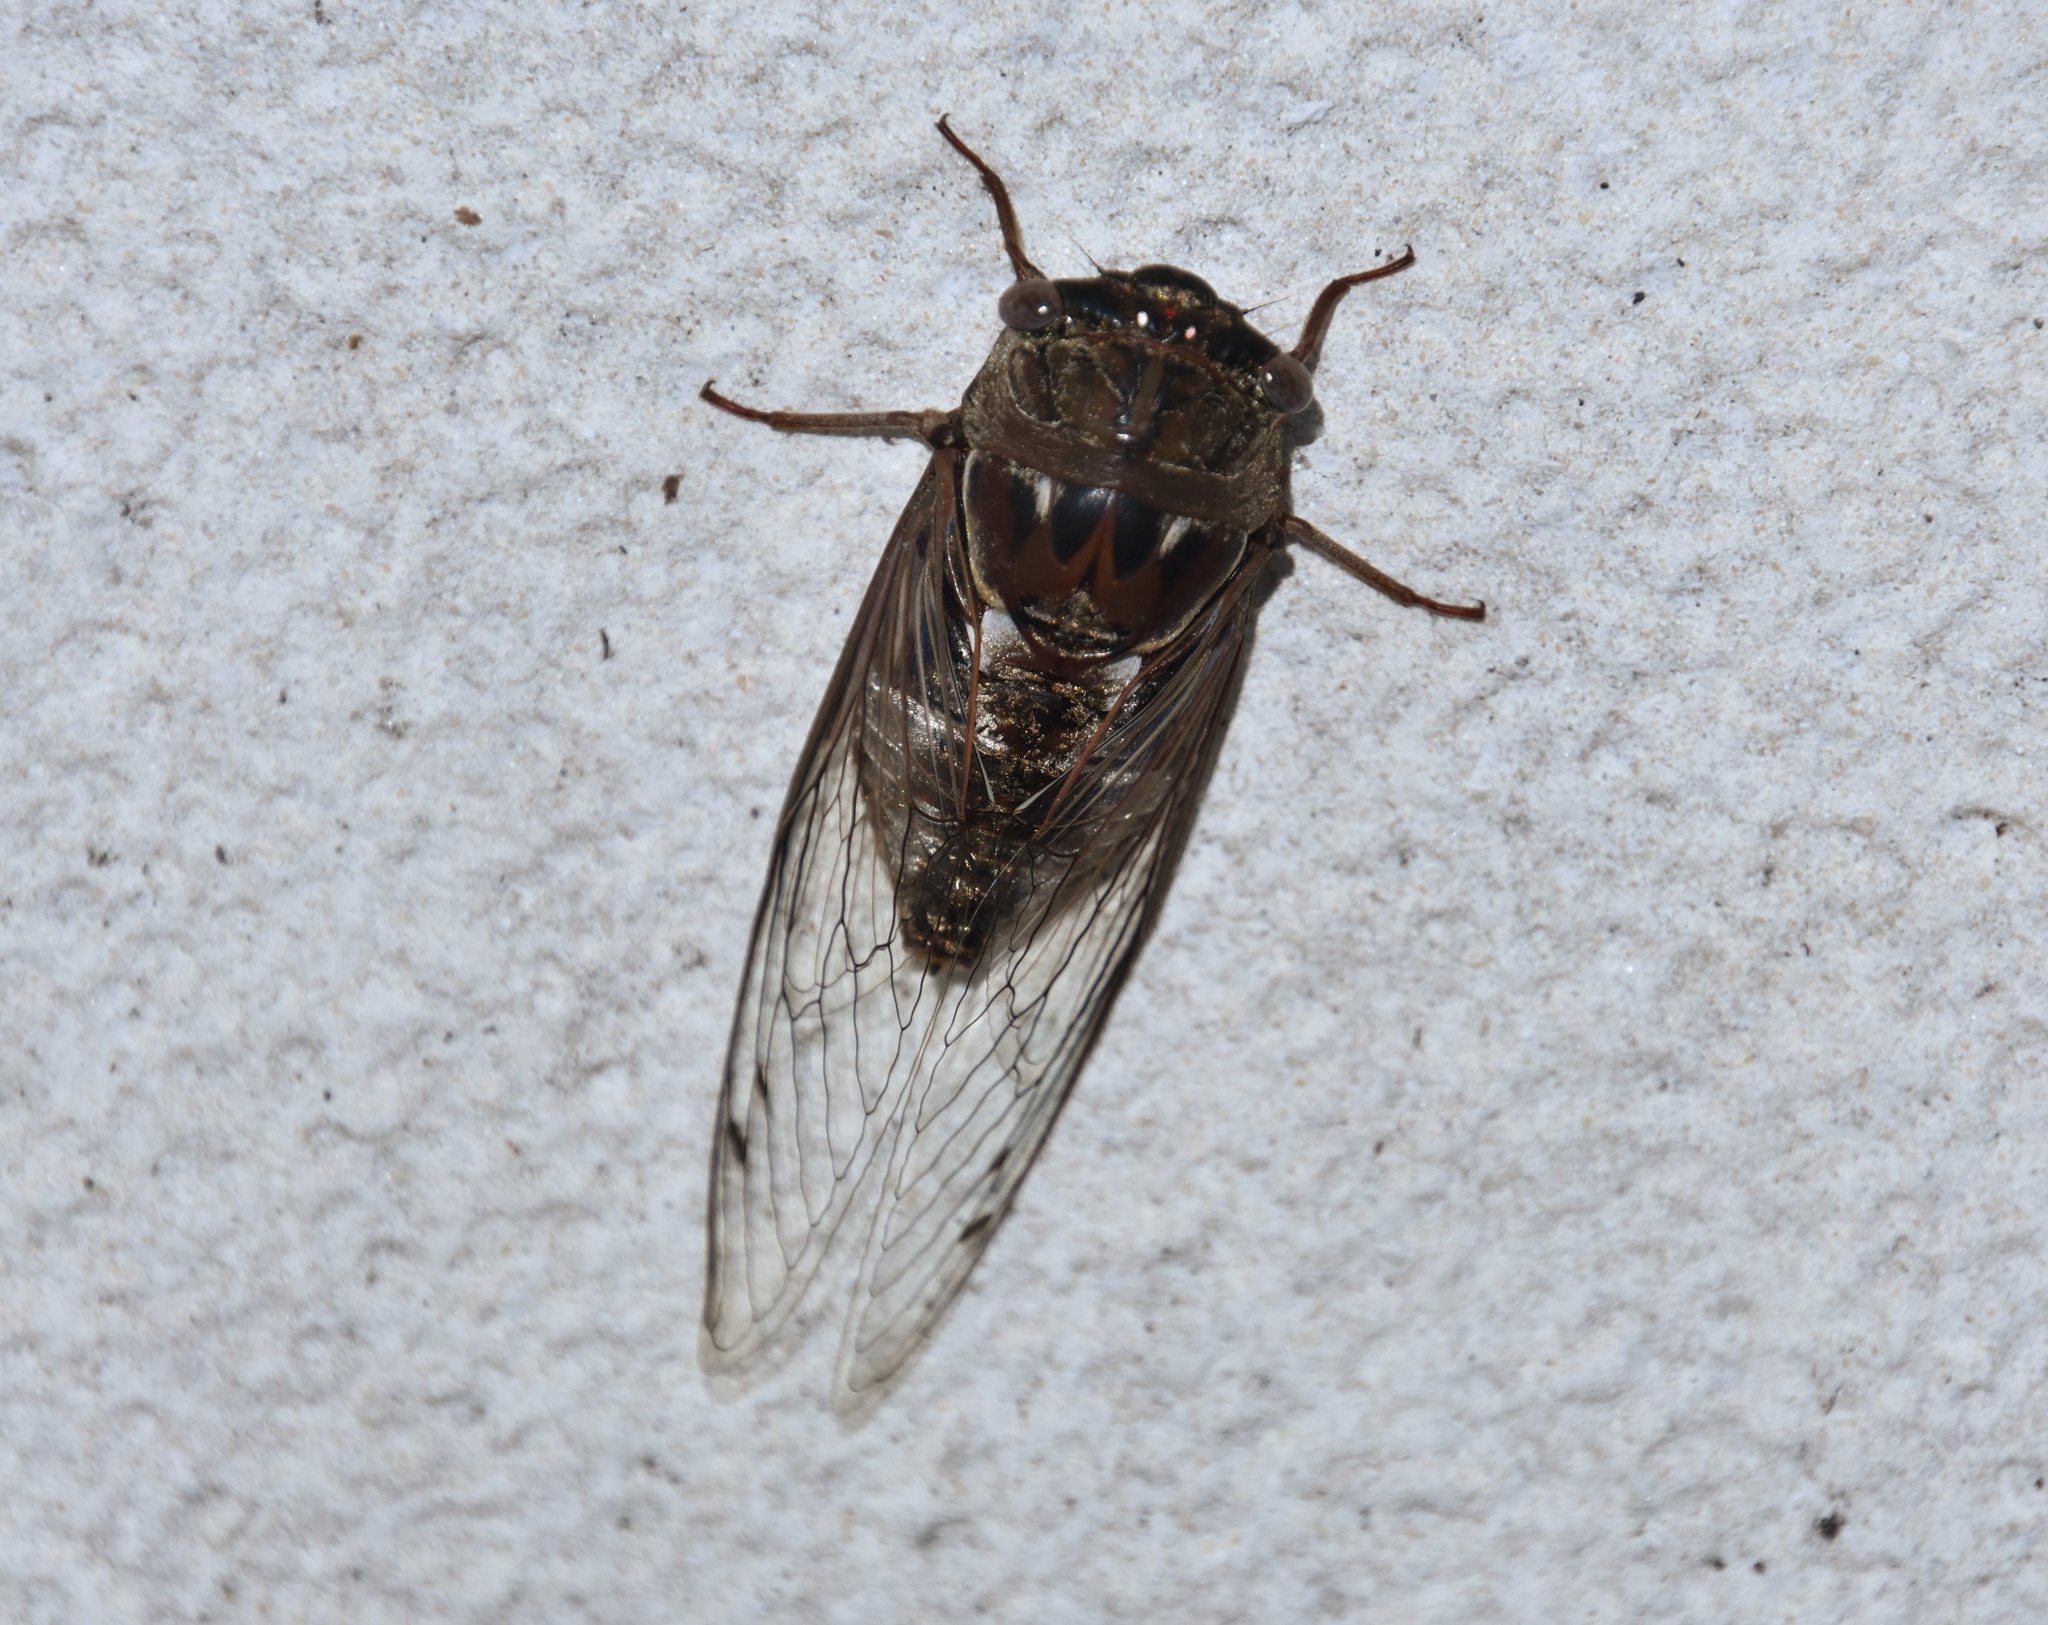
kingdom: Animalia
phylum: Arthropoda
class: Insecta
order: Hemiptera
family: Cicadidae
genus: Megatibicen
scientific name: Megatibicen resonans
